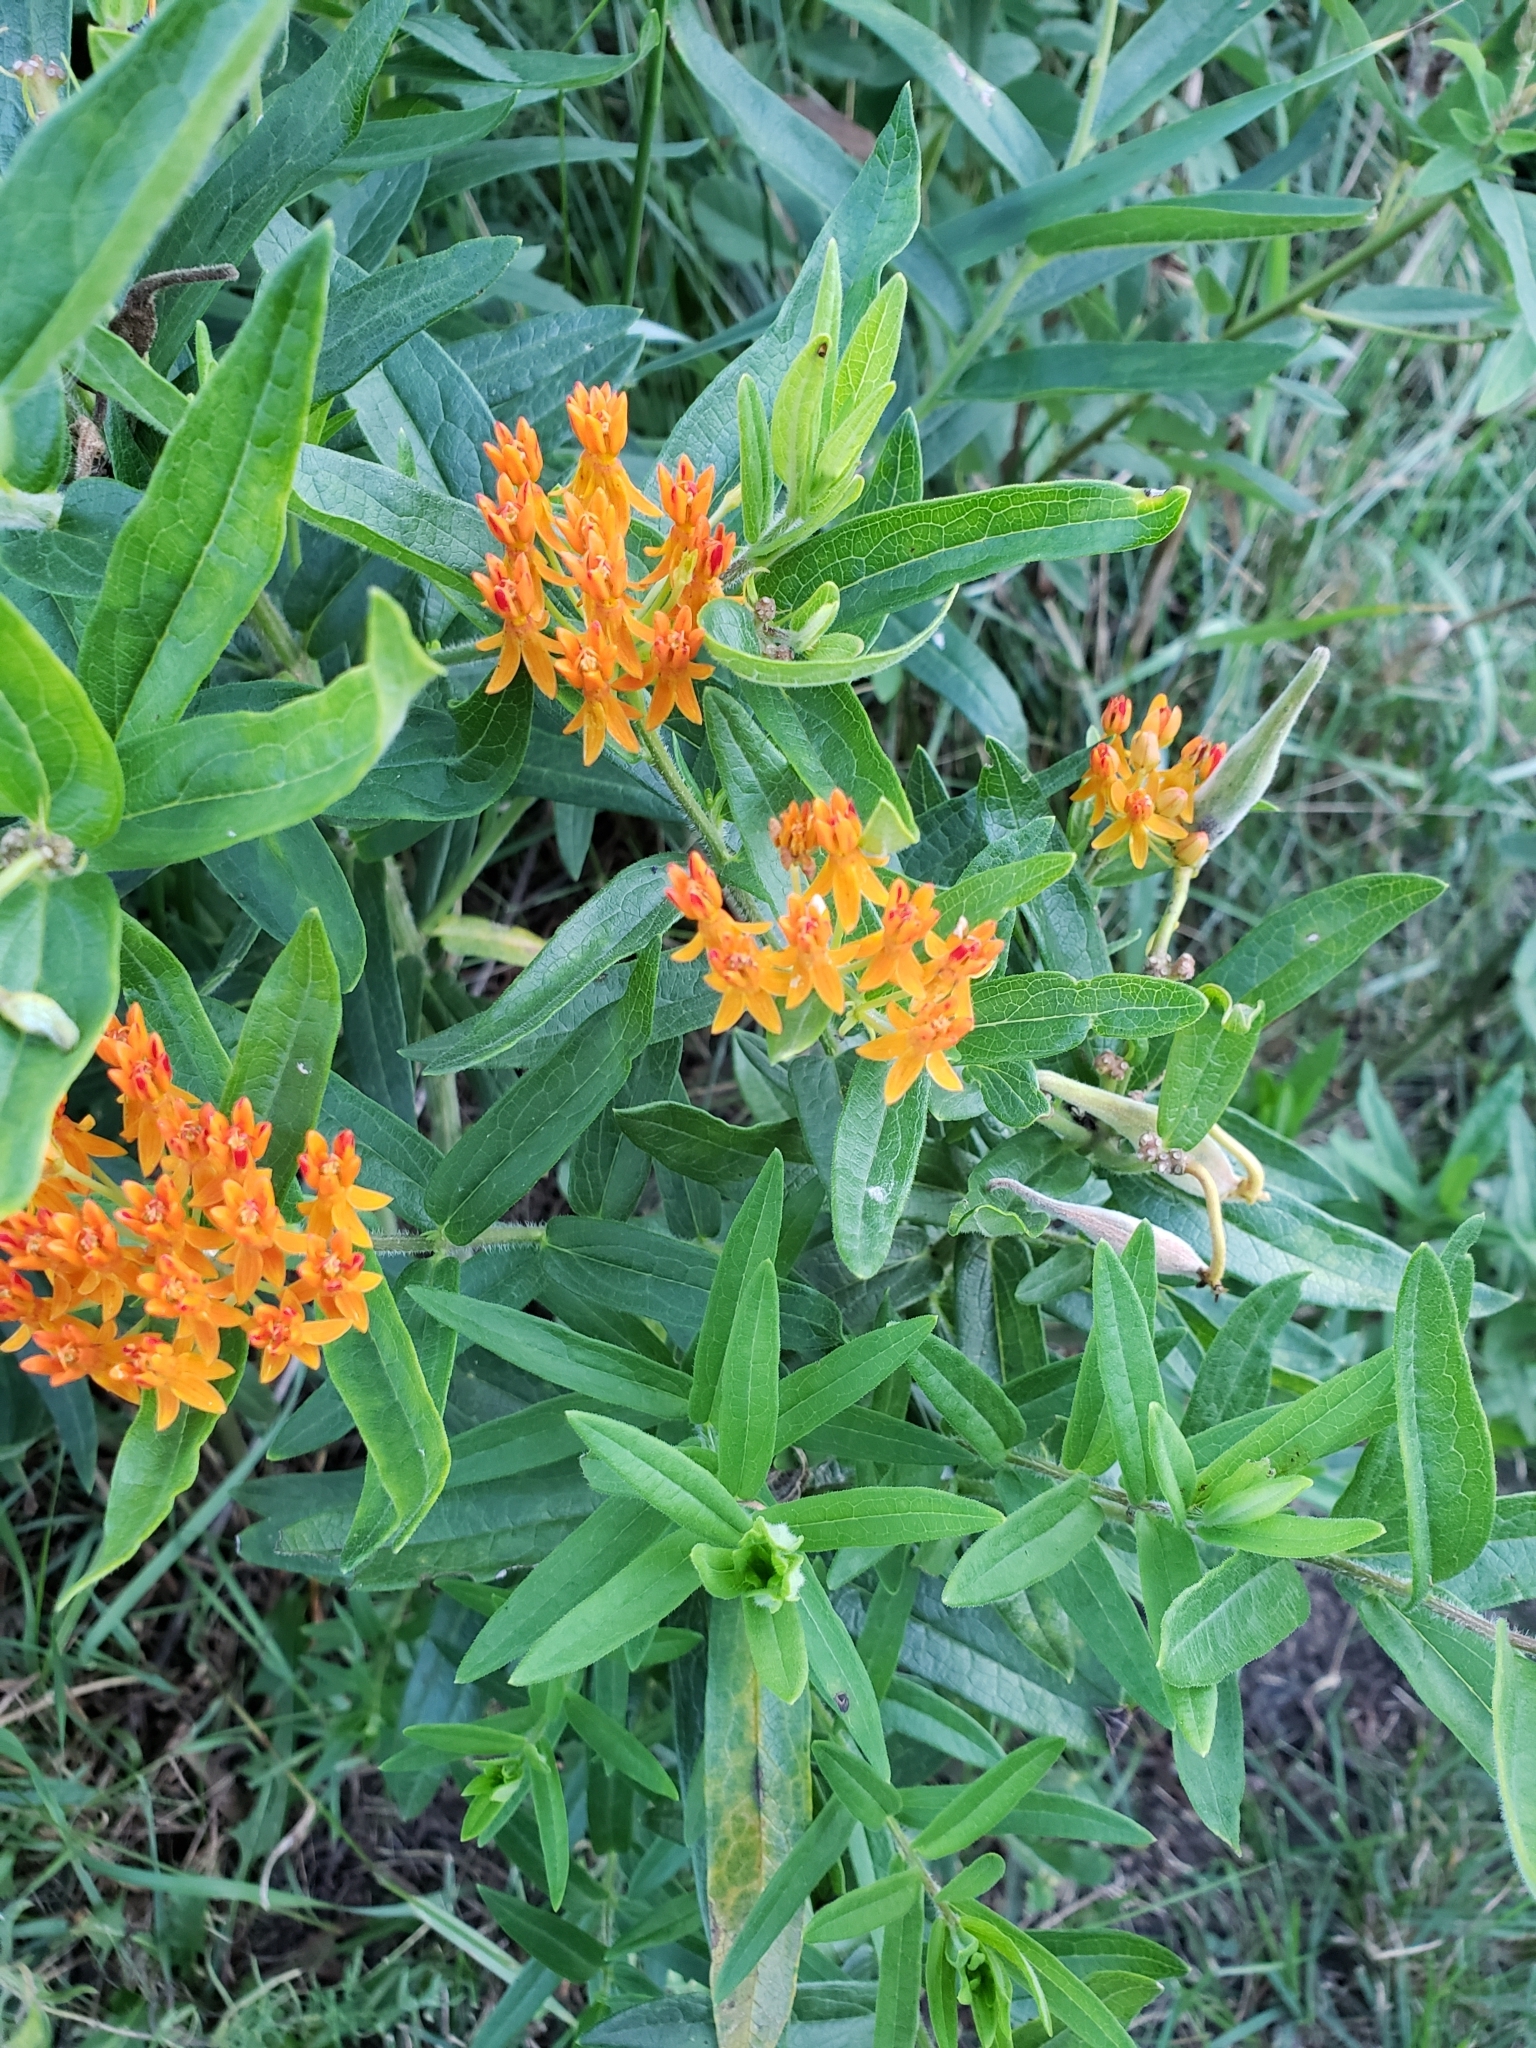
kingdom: Plantae
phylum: Tracheophyta
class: Magnoliopsida
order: Gentianales
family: Apocynaceae
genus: Asclepias
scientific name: Asclepias tuberosa
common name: Butterfly milkweed
